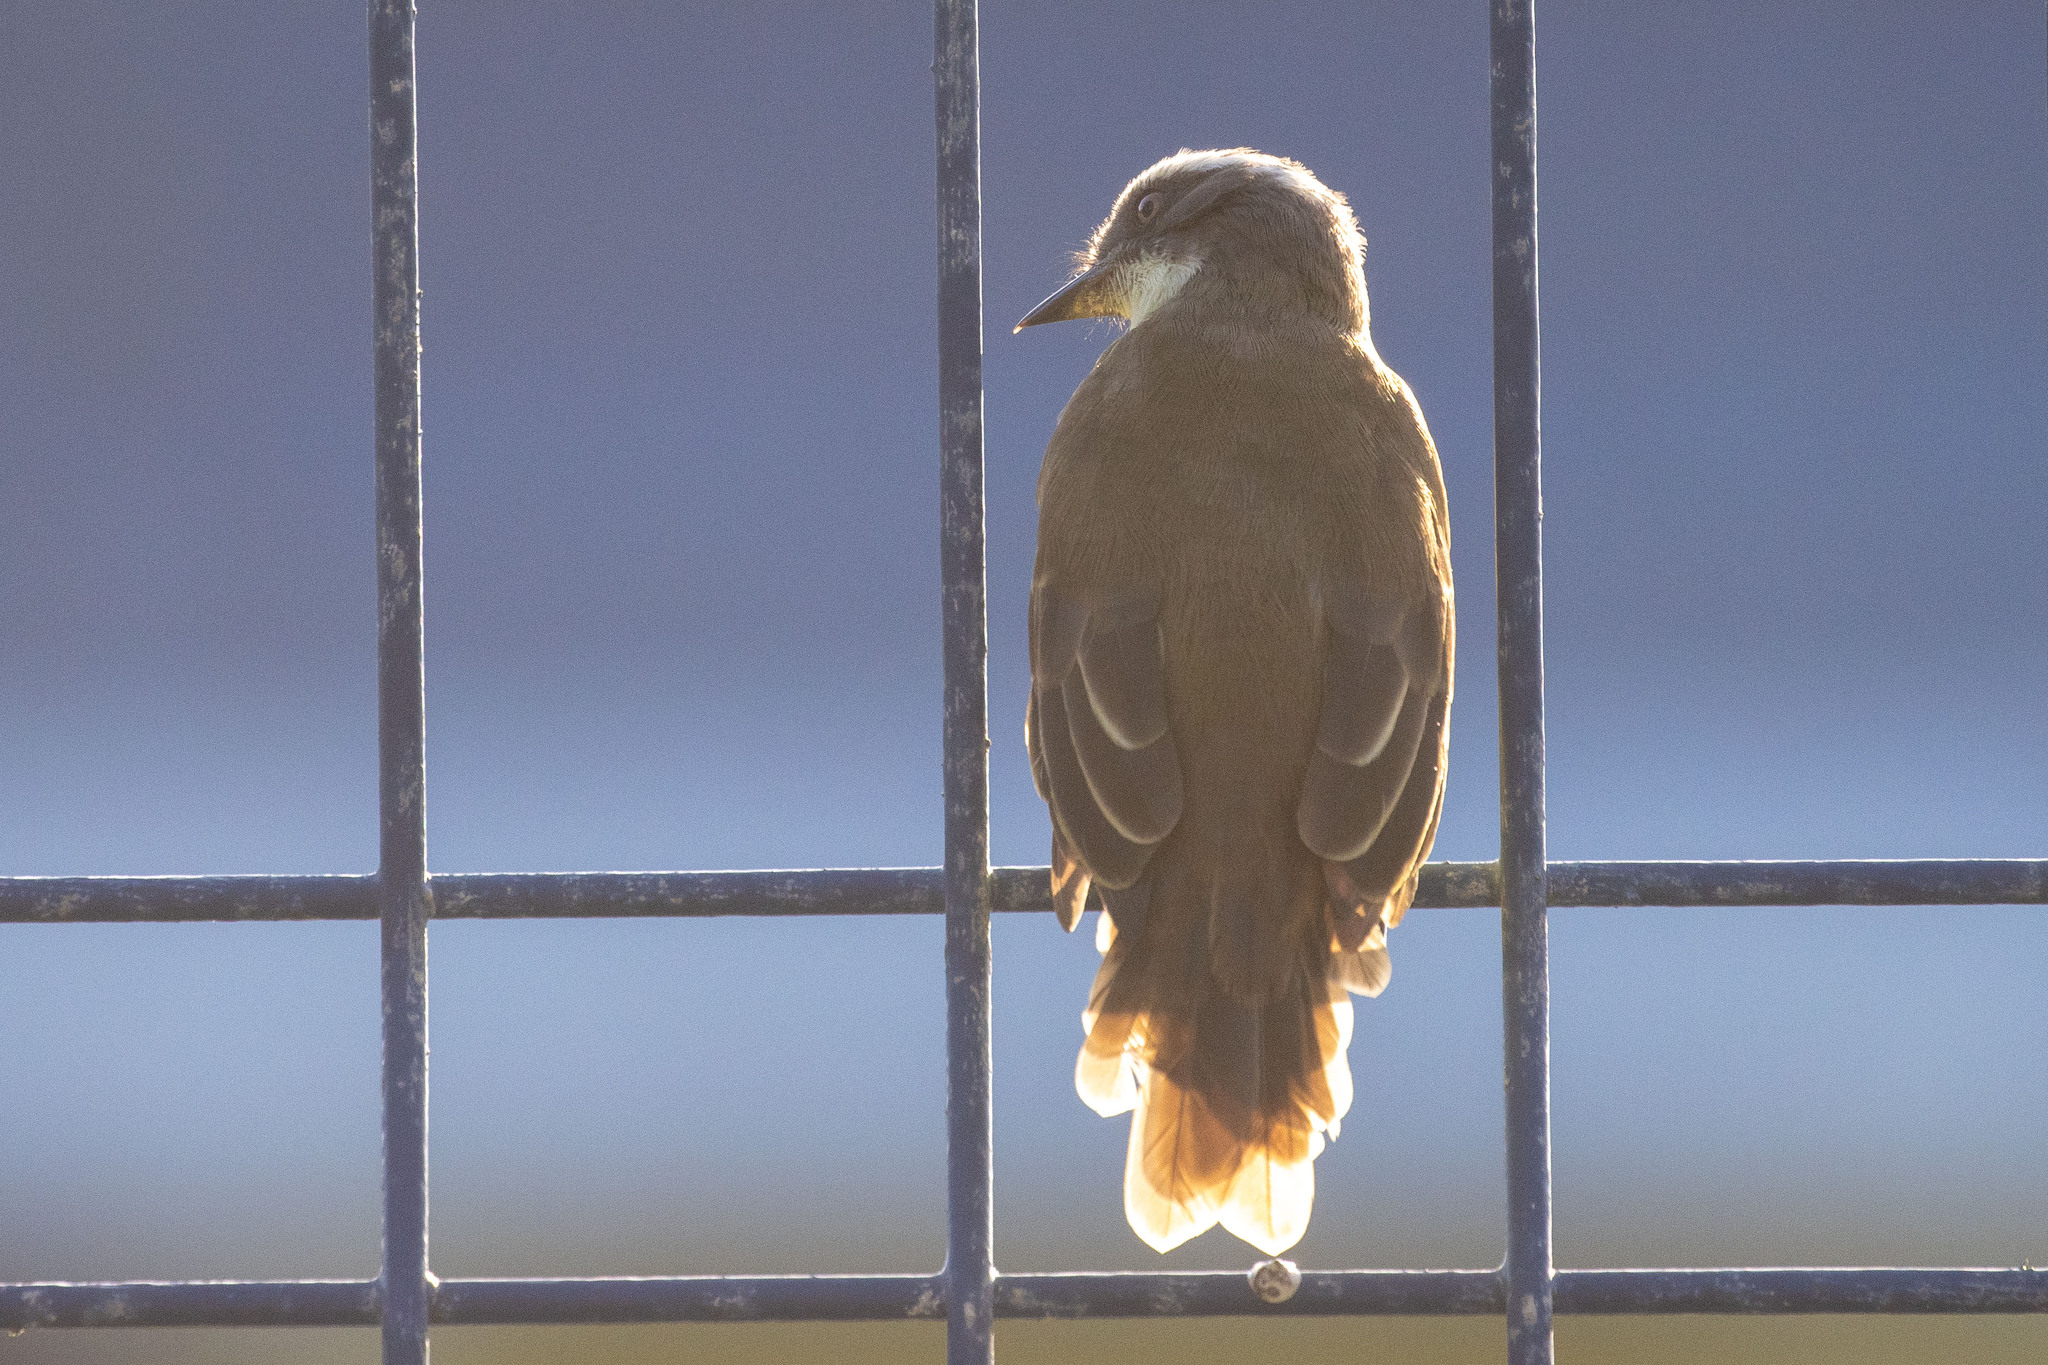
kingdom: Animalia
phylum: Chordata
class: Aves
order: Passeriformes
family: Tyrannidae
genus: Myiozetetes
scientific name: Myiozetetes similis
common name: Social flycatcher
